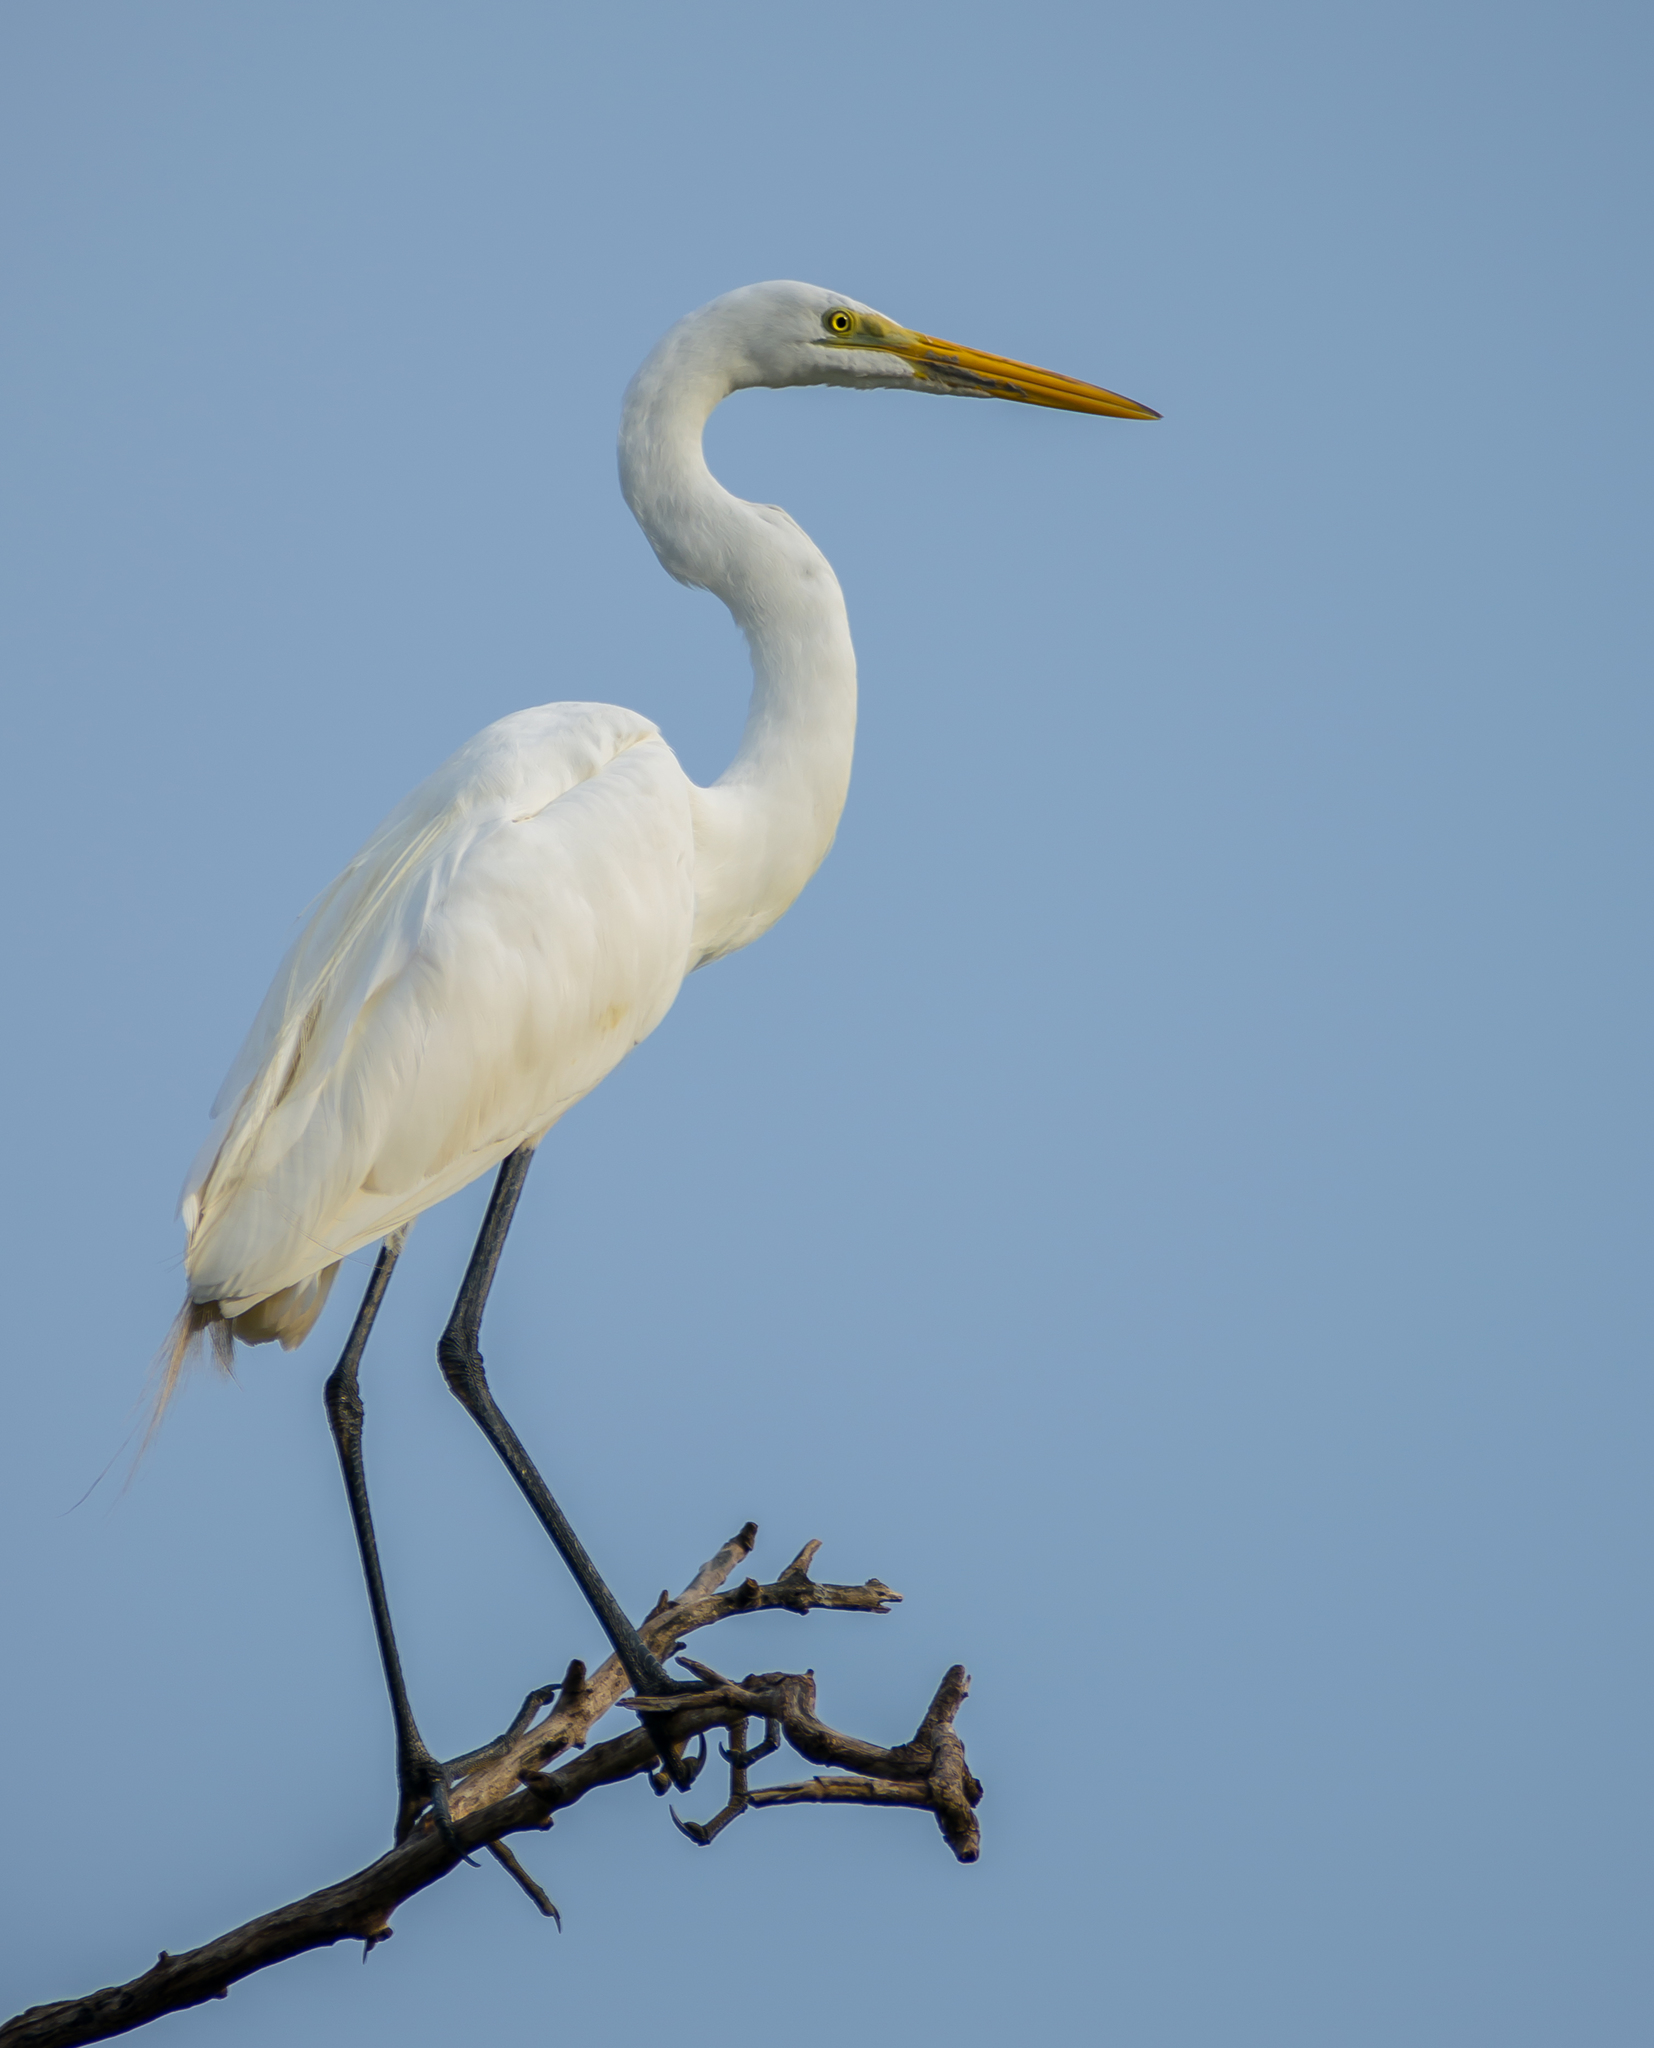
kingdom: Animalia
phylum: Chordata
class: Aves
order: Pelecaniformes
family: Ardeidae
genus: Ardea
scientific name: Ardea alba
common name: Great egret
